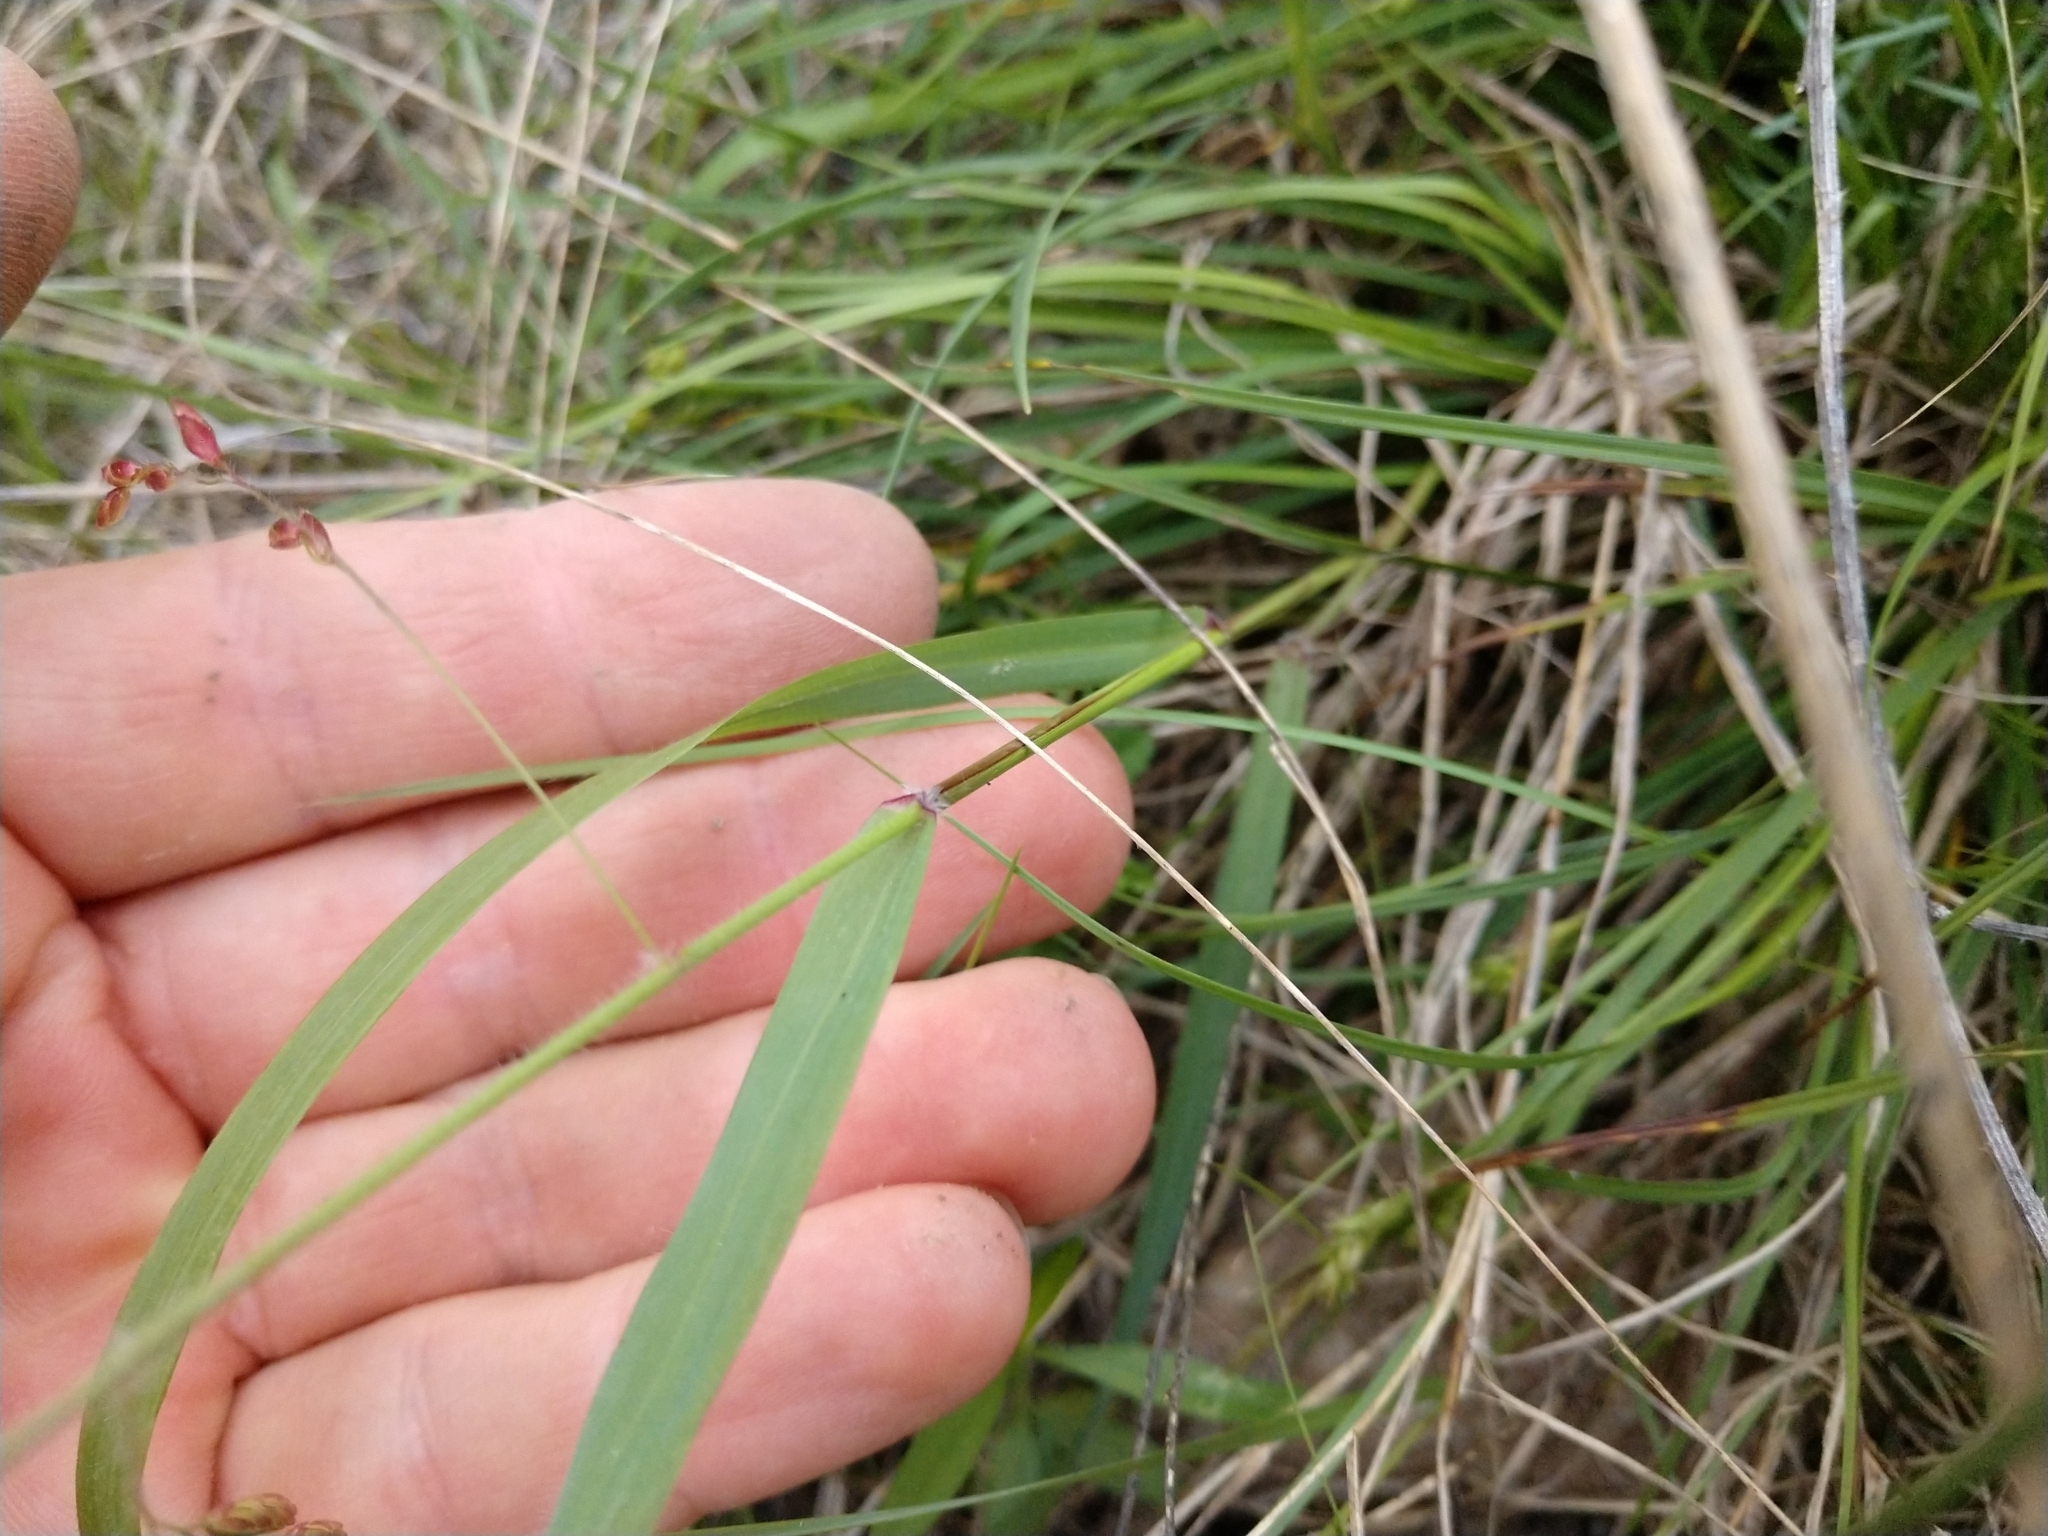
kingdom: Plantae
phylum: Tracheophyta
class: Liliopsida
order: Poales
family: Poaceae
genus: Tridens
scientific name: Tridens texanus
